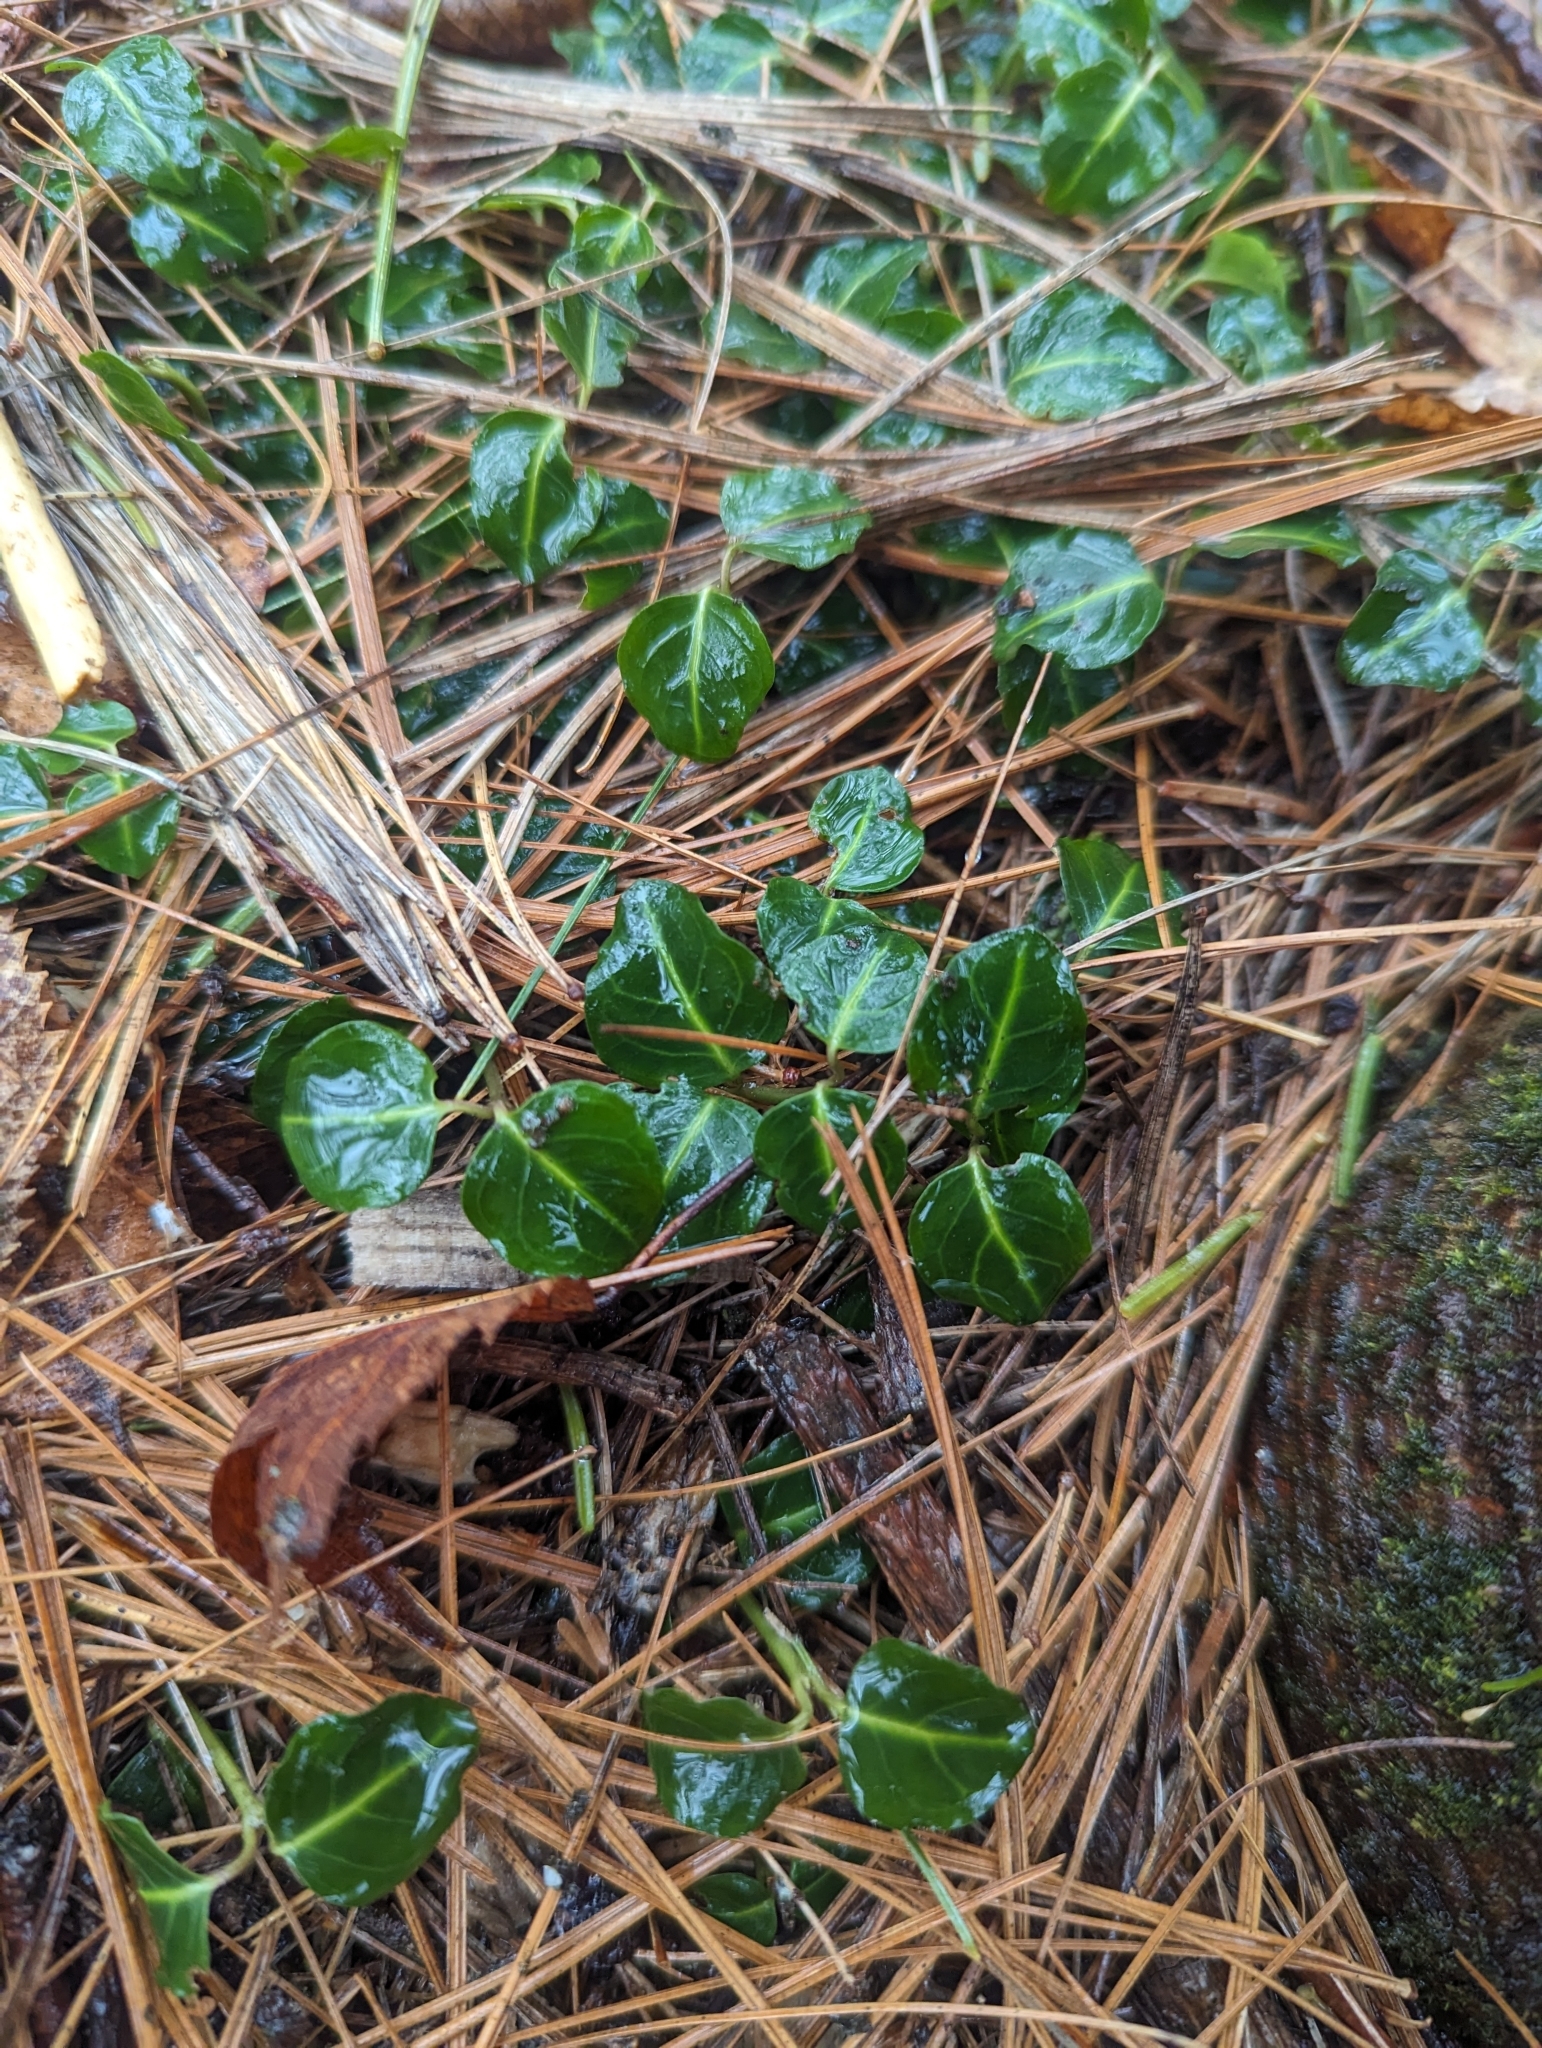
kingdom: Plantae
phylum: Tracheophyta
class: Magnoliopsida
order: Gentianales
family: Rubiaceae
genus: Mitchella
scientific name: Mitchella repens
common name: Partridge-berry
